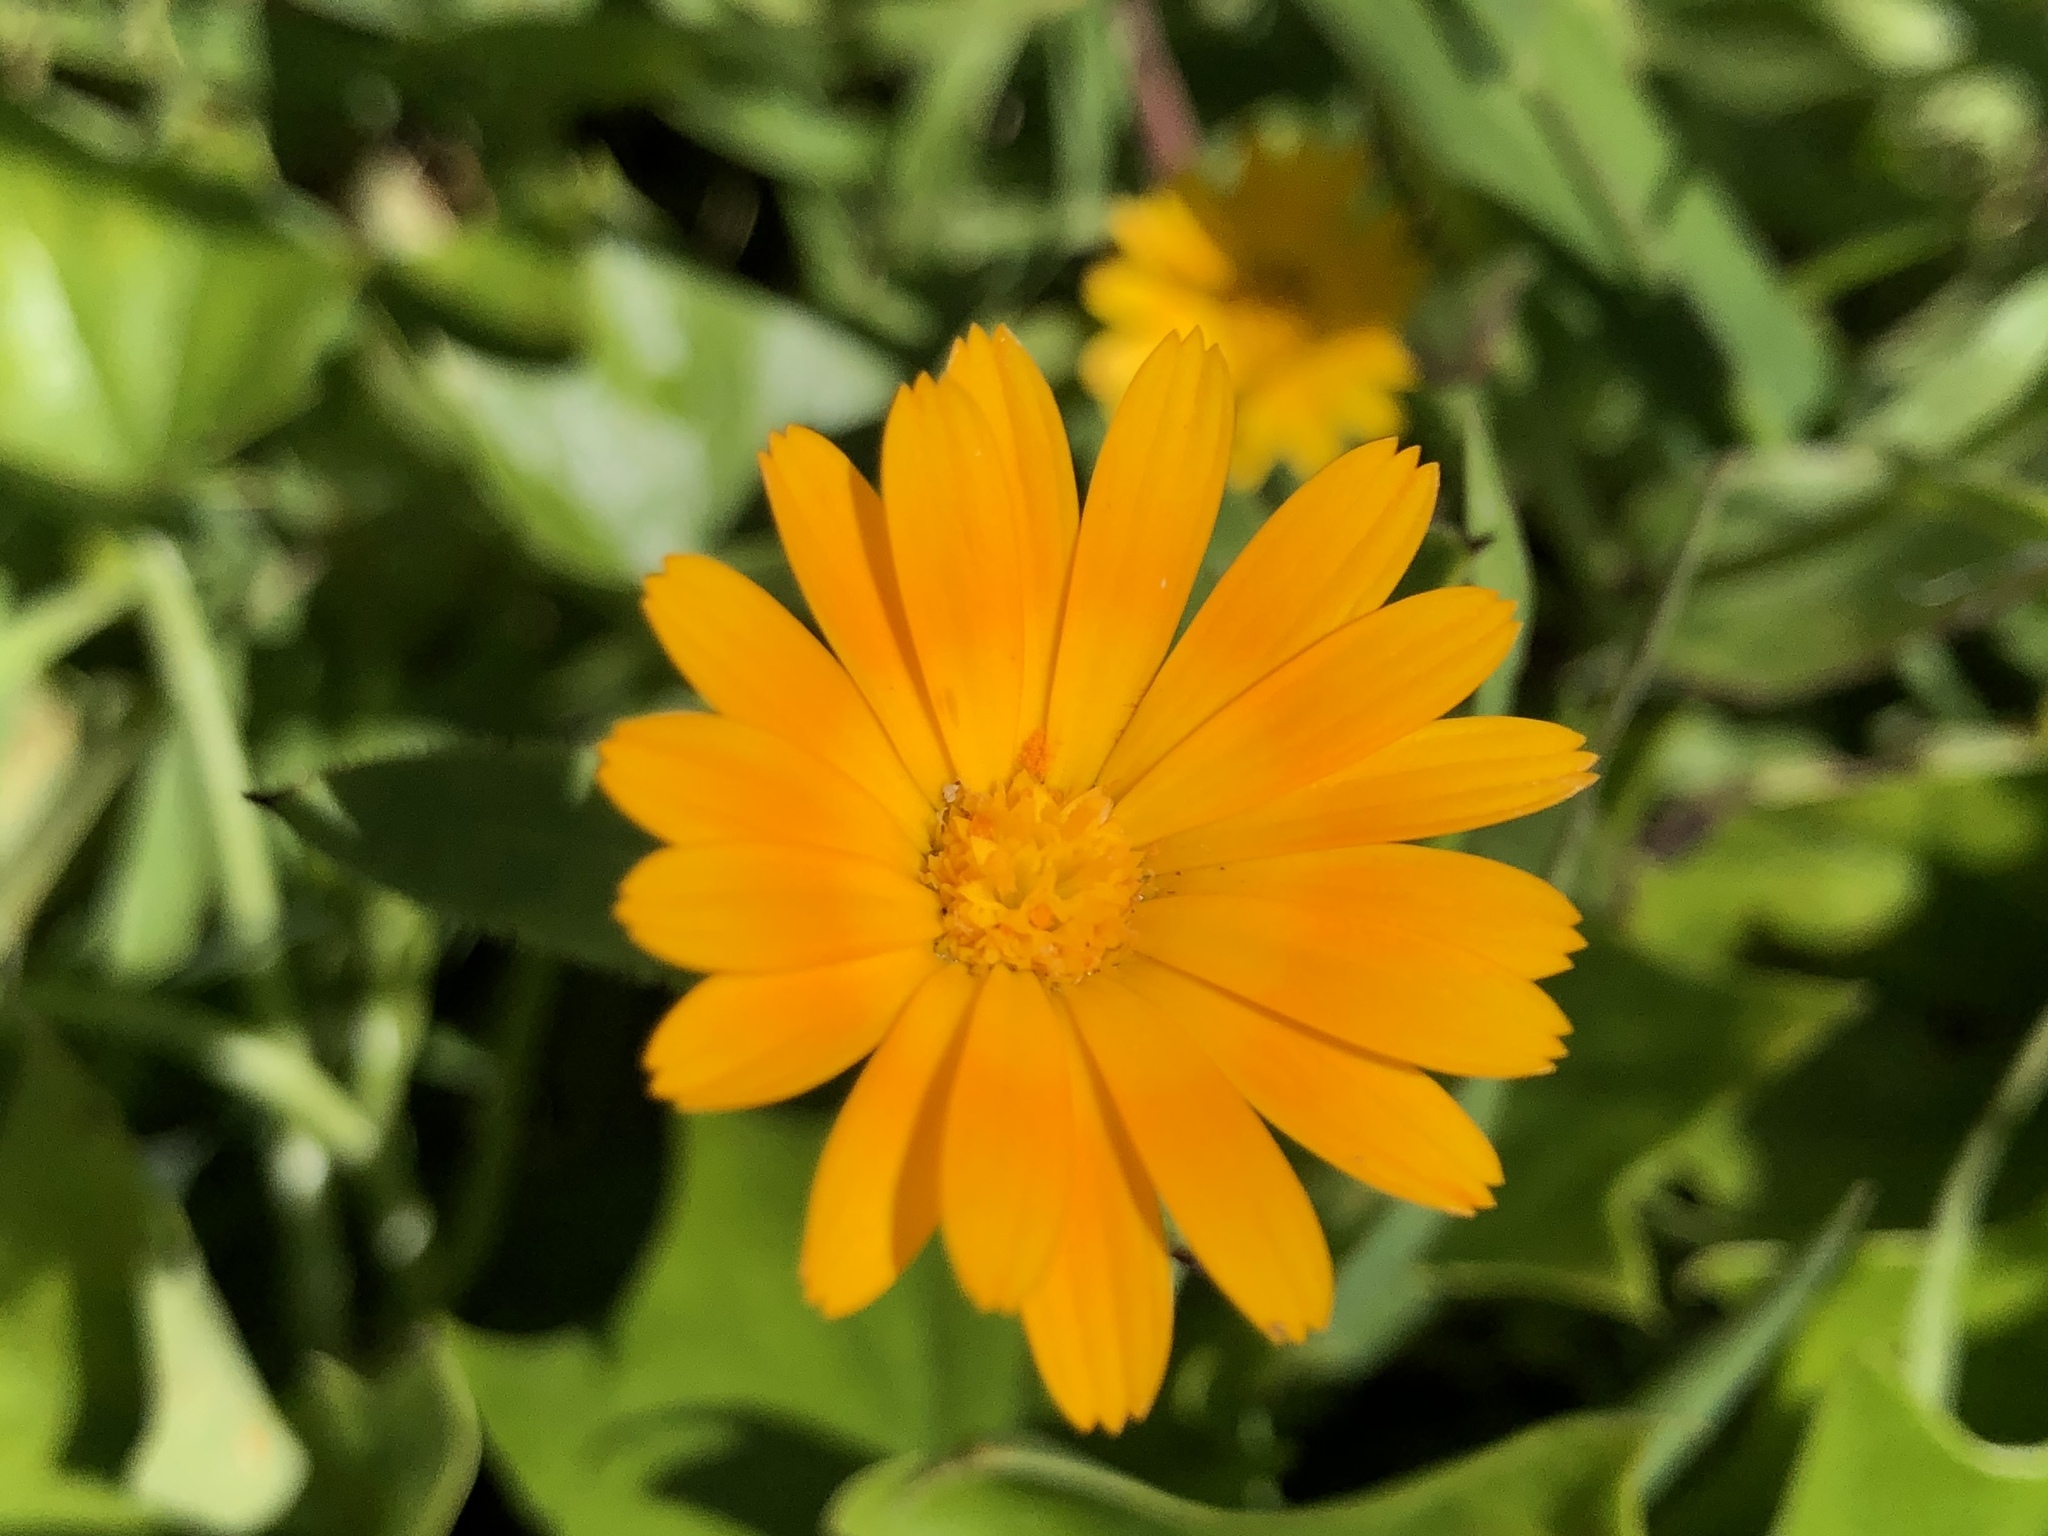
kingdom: Plantae
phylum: Tracheophyta
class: Magnoliopsida
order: Asterales
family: Asteraceae
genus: Calendula
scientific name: Calendula arvensis
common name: Field marigold
